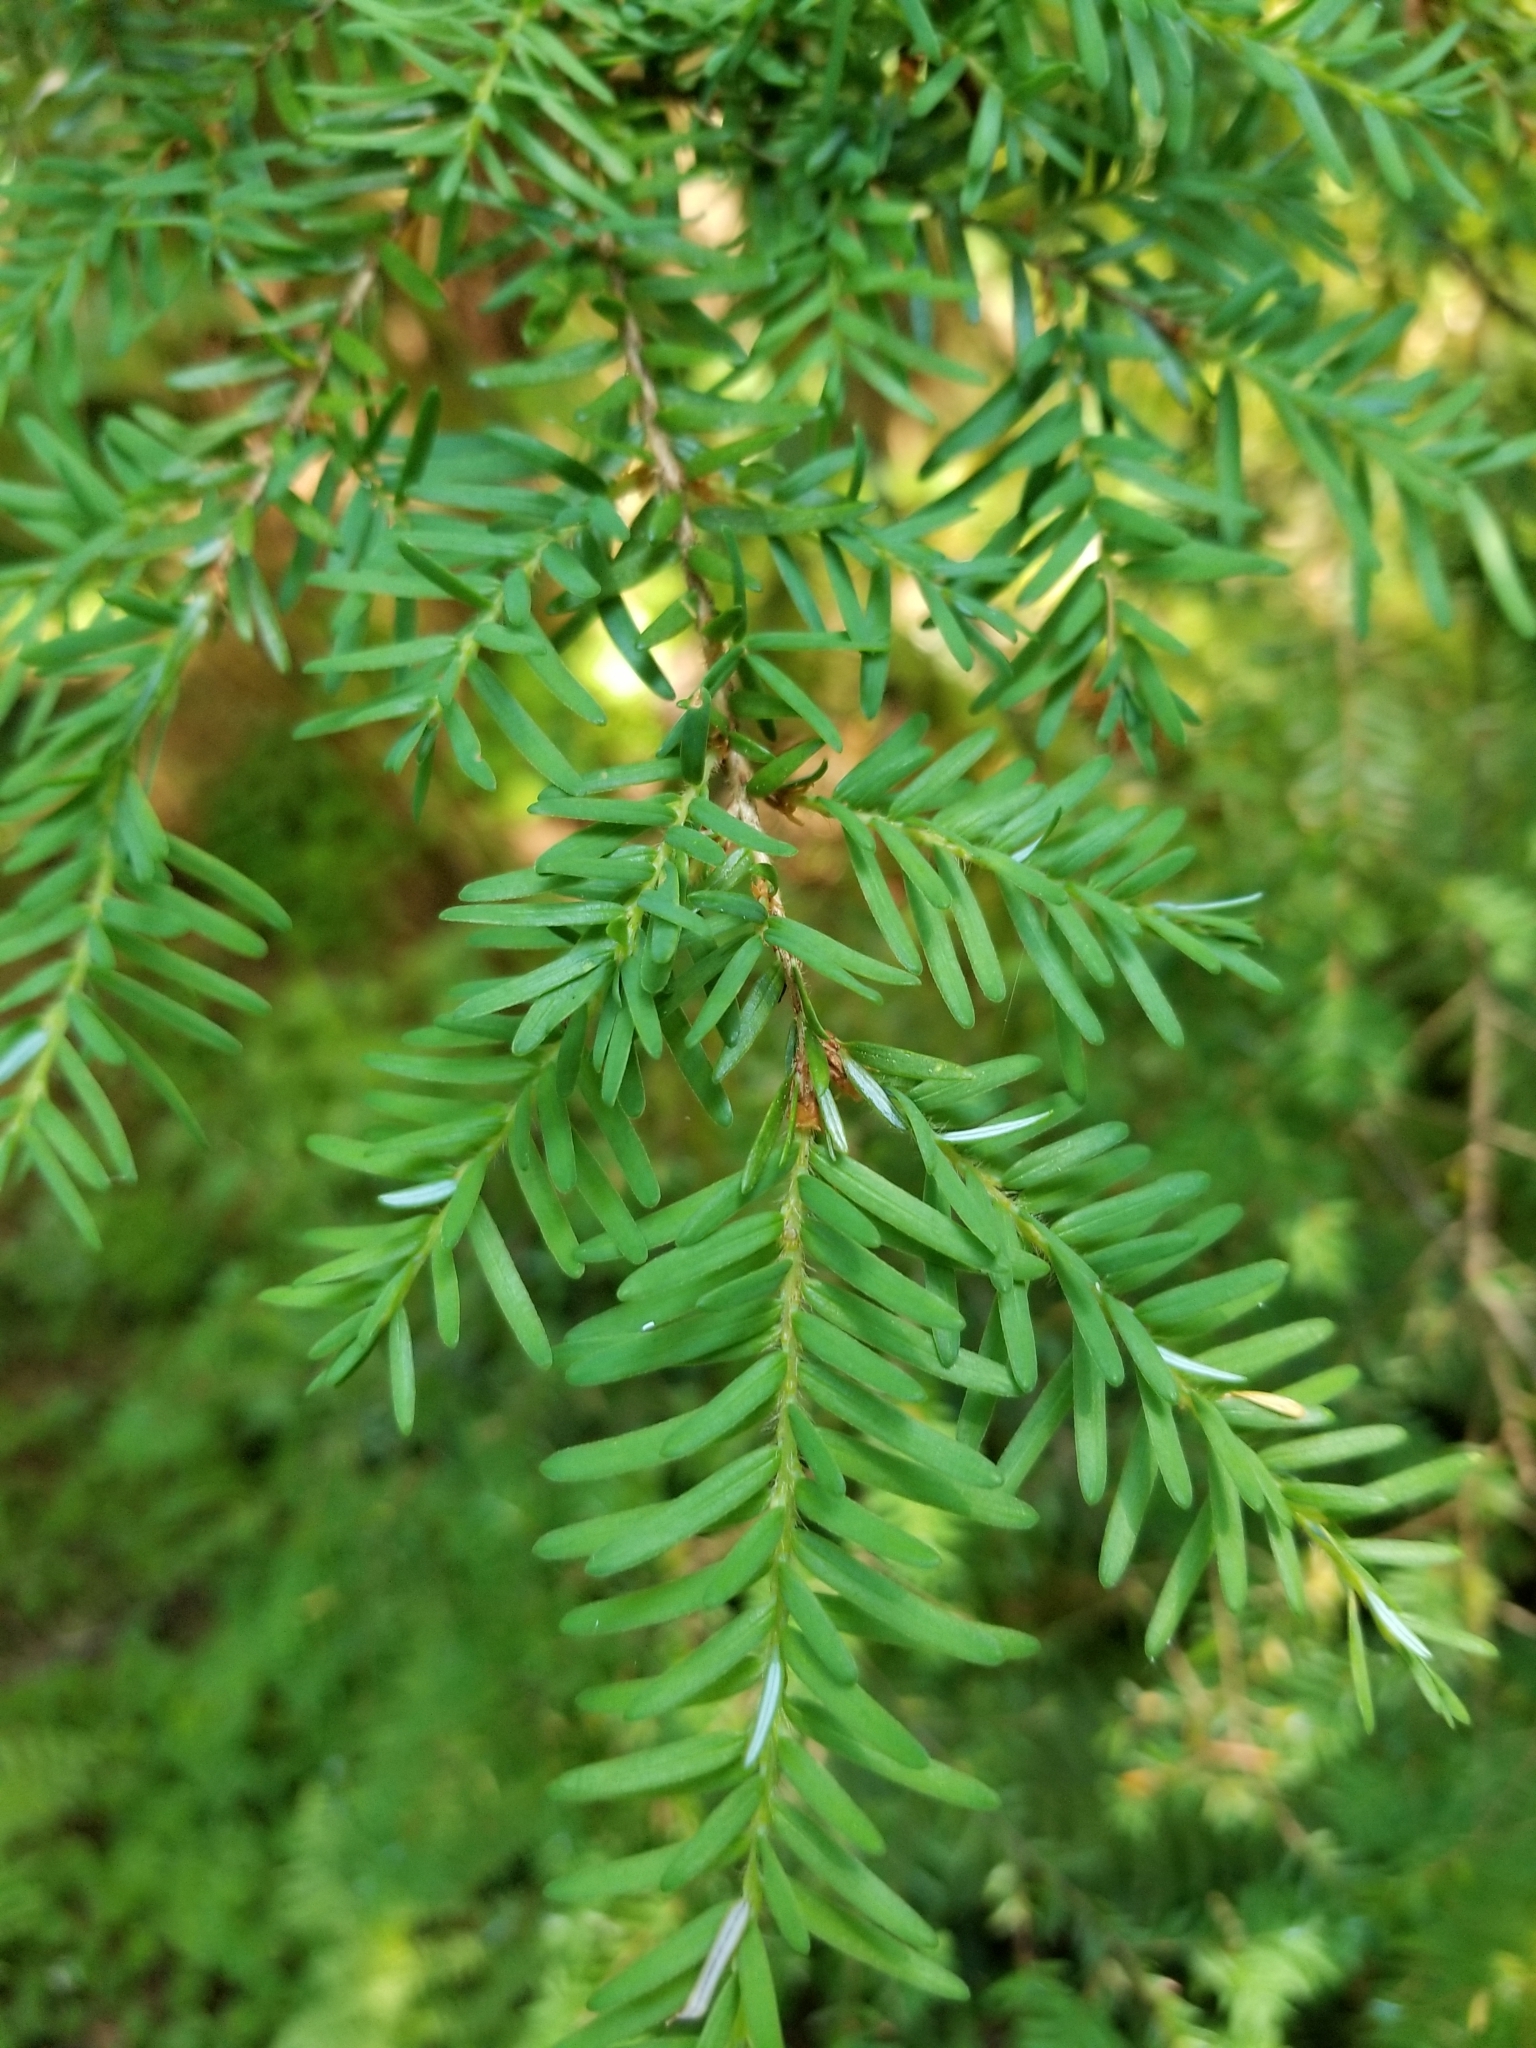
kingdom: Plantae
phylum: Tracheophyta
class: Pinopsida
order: Pinales
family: Pinaceae
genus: Tsuga
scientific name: Tsuga heterophylla
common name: Western hemlock
